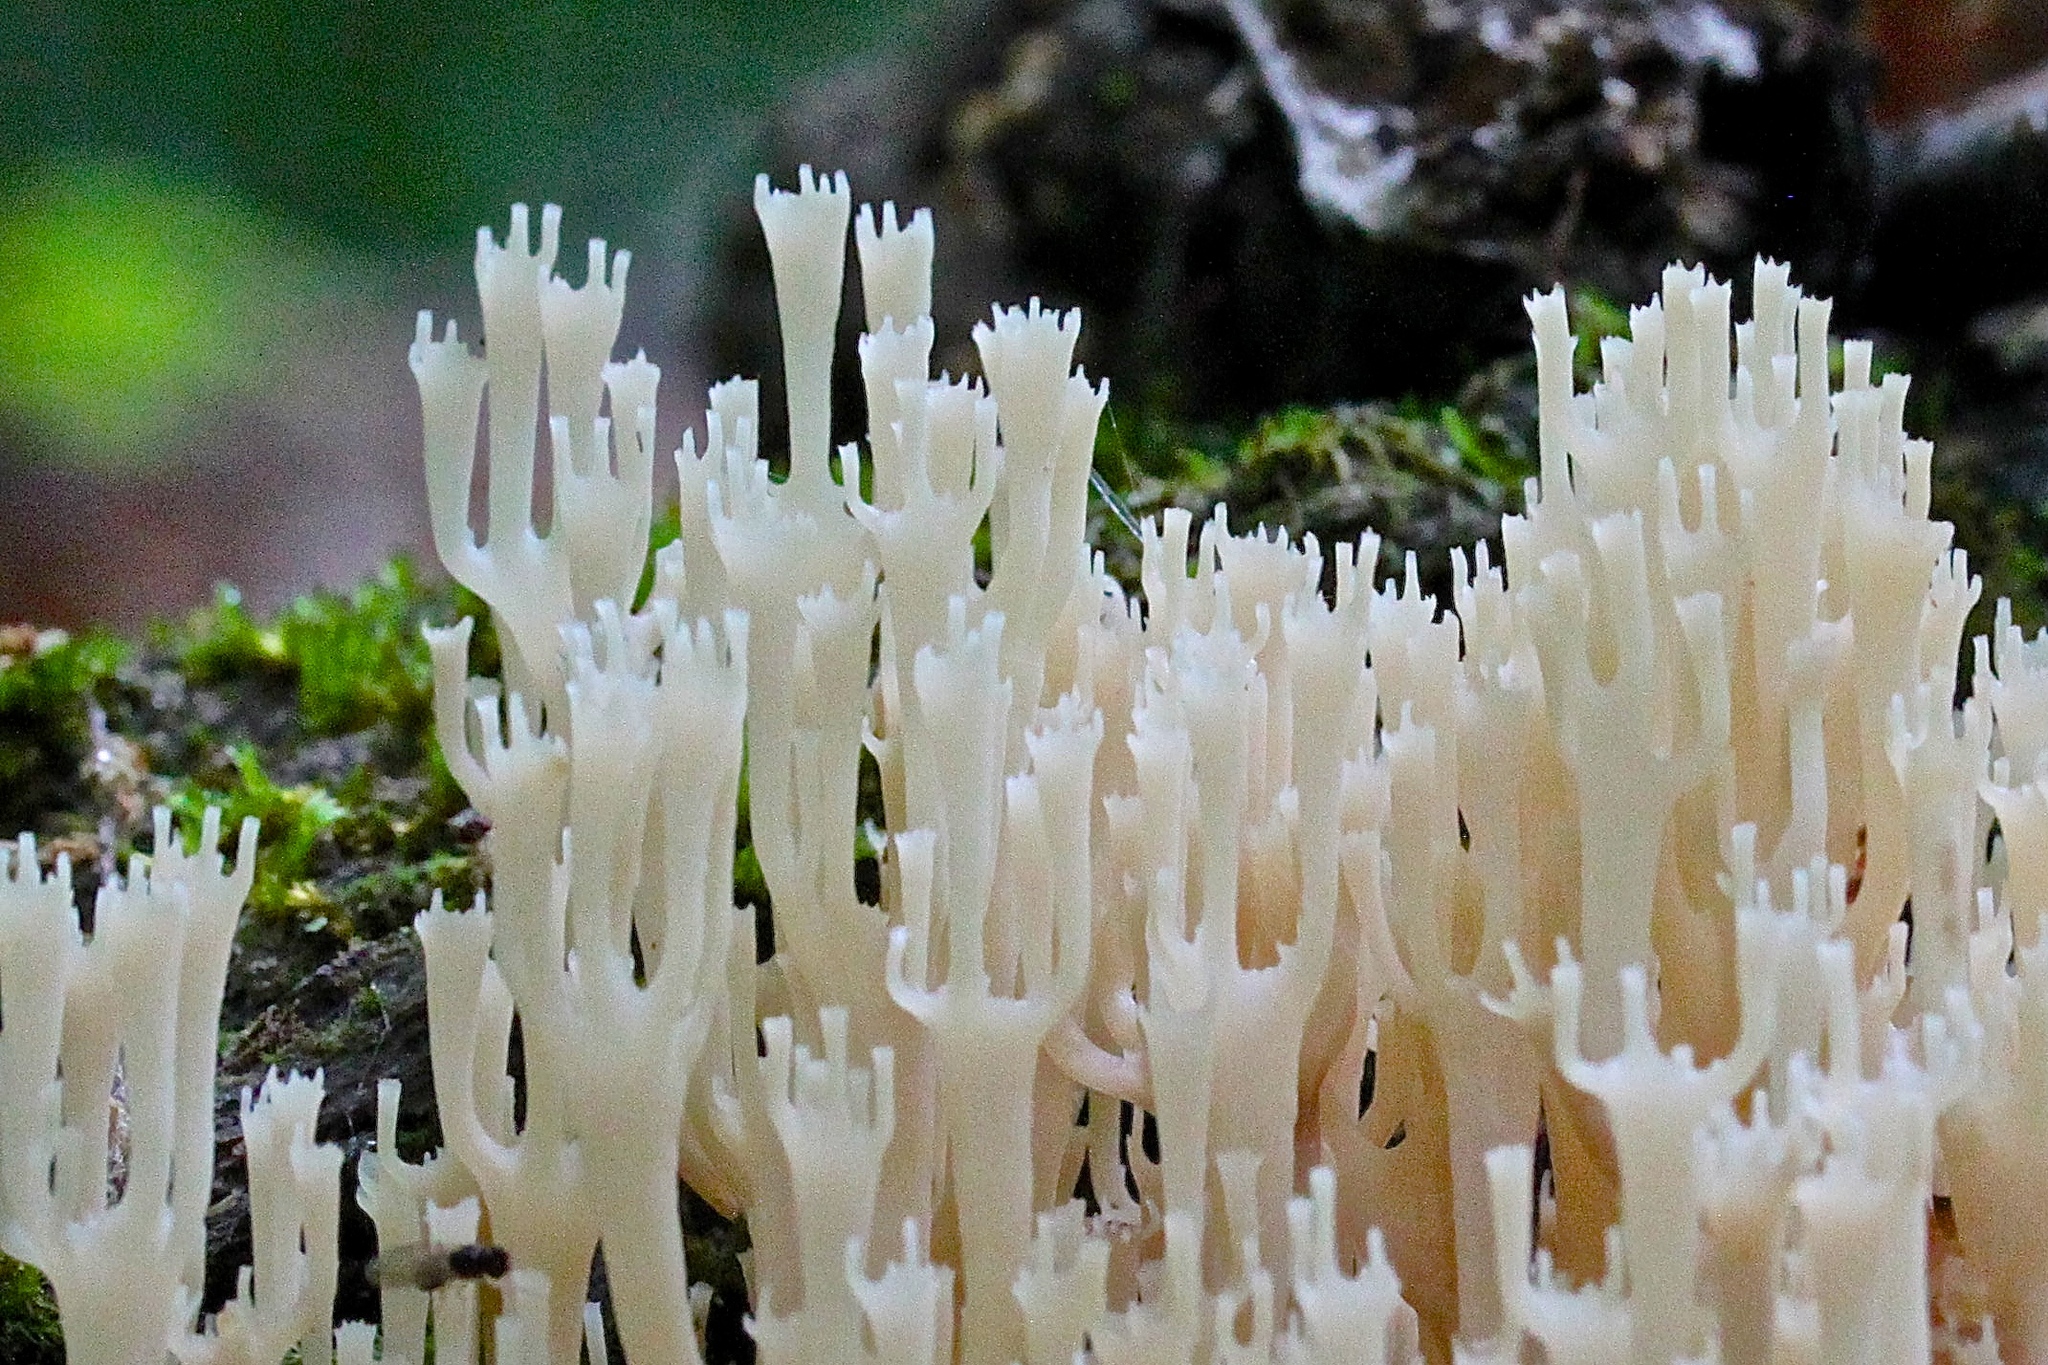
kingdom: Fungi
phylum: Basidiomycota
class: Agaricomycetes
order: Russulales
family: Auriscalpiaceae
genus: Artomyces
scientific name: Artomyces pyxidatus
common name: Crown-tipped coral fungus
